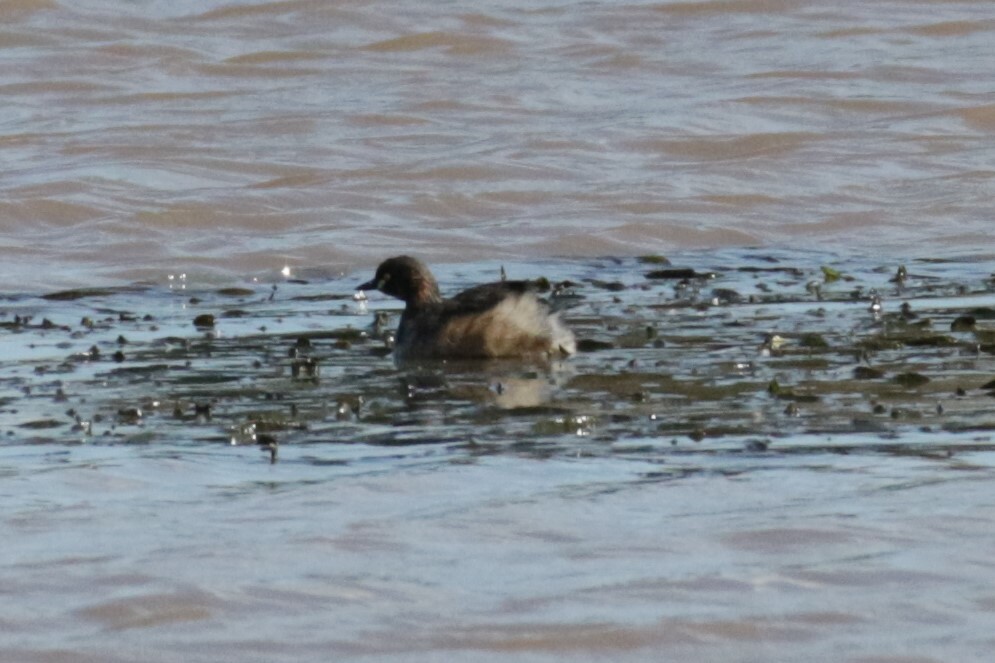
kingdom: Animalia
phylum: Chordata
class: Aves
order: Podicipediformes
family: Podicipedidae
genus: Tachybaptus
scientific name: Tachybaptus novaehollandiae
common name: Australasian grebe
